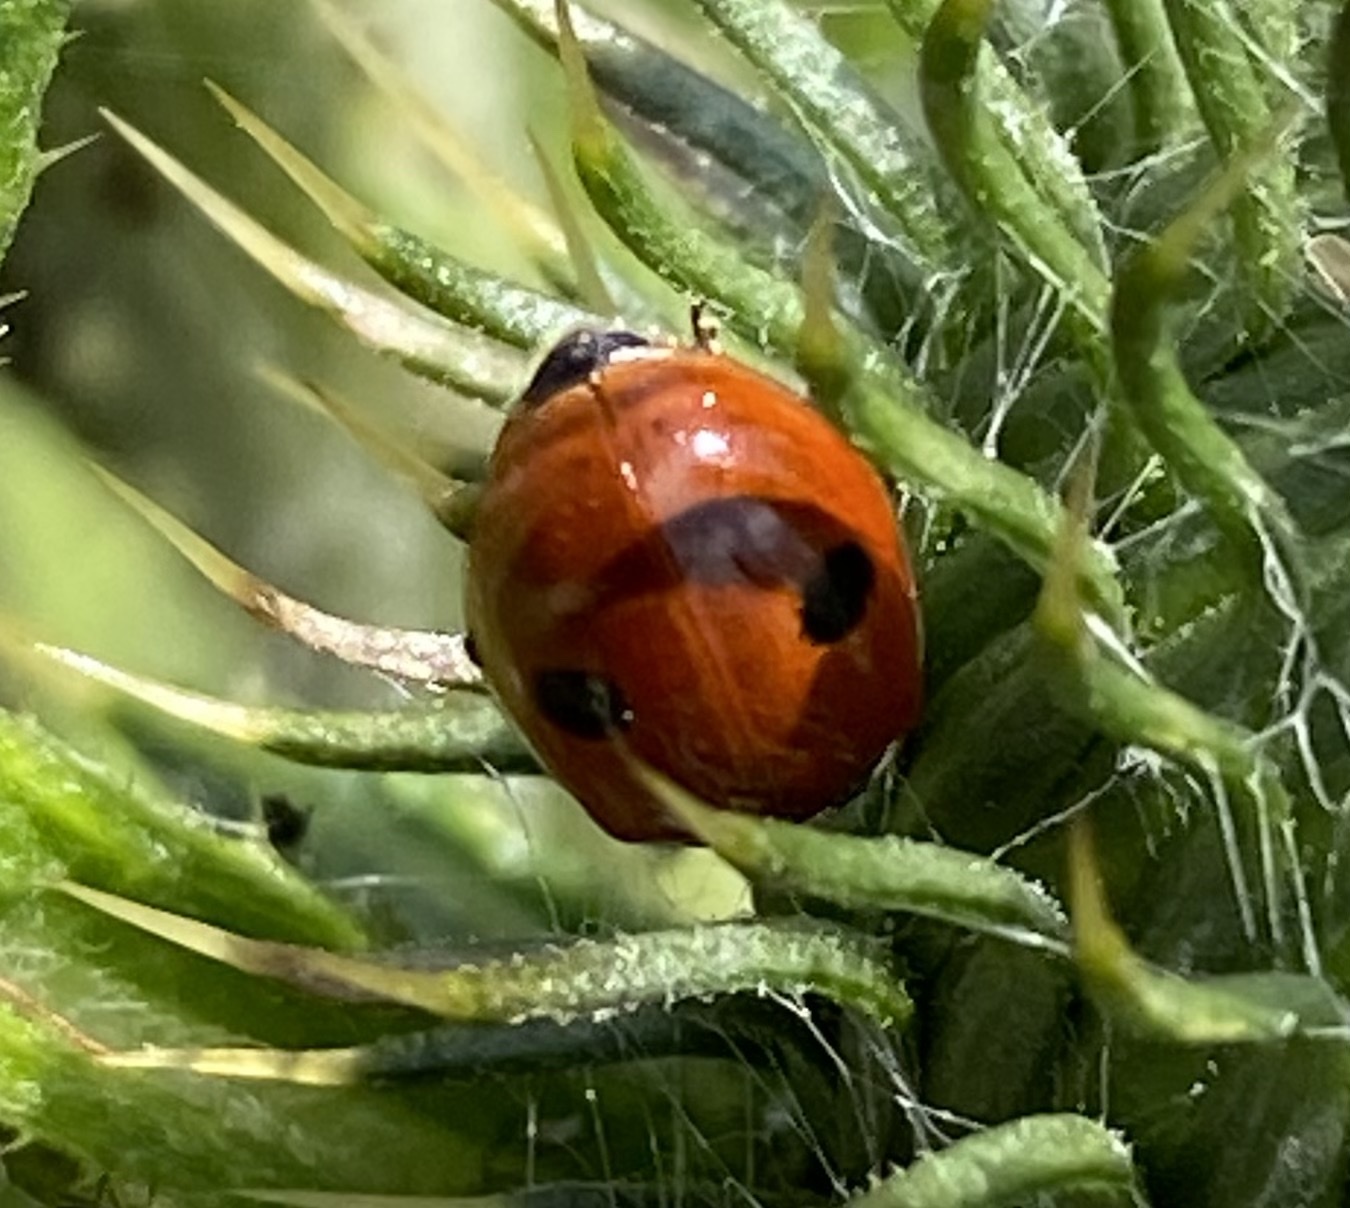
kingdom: Animalia
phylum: Arthropoda
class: Insecta
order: Coleoptera
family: Coccinellidae
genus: Adalia
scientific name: Adalia bipunctata
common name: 2-spot ladybird
